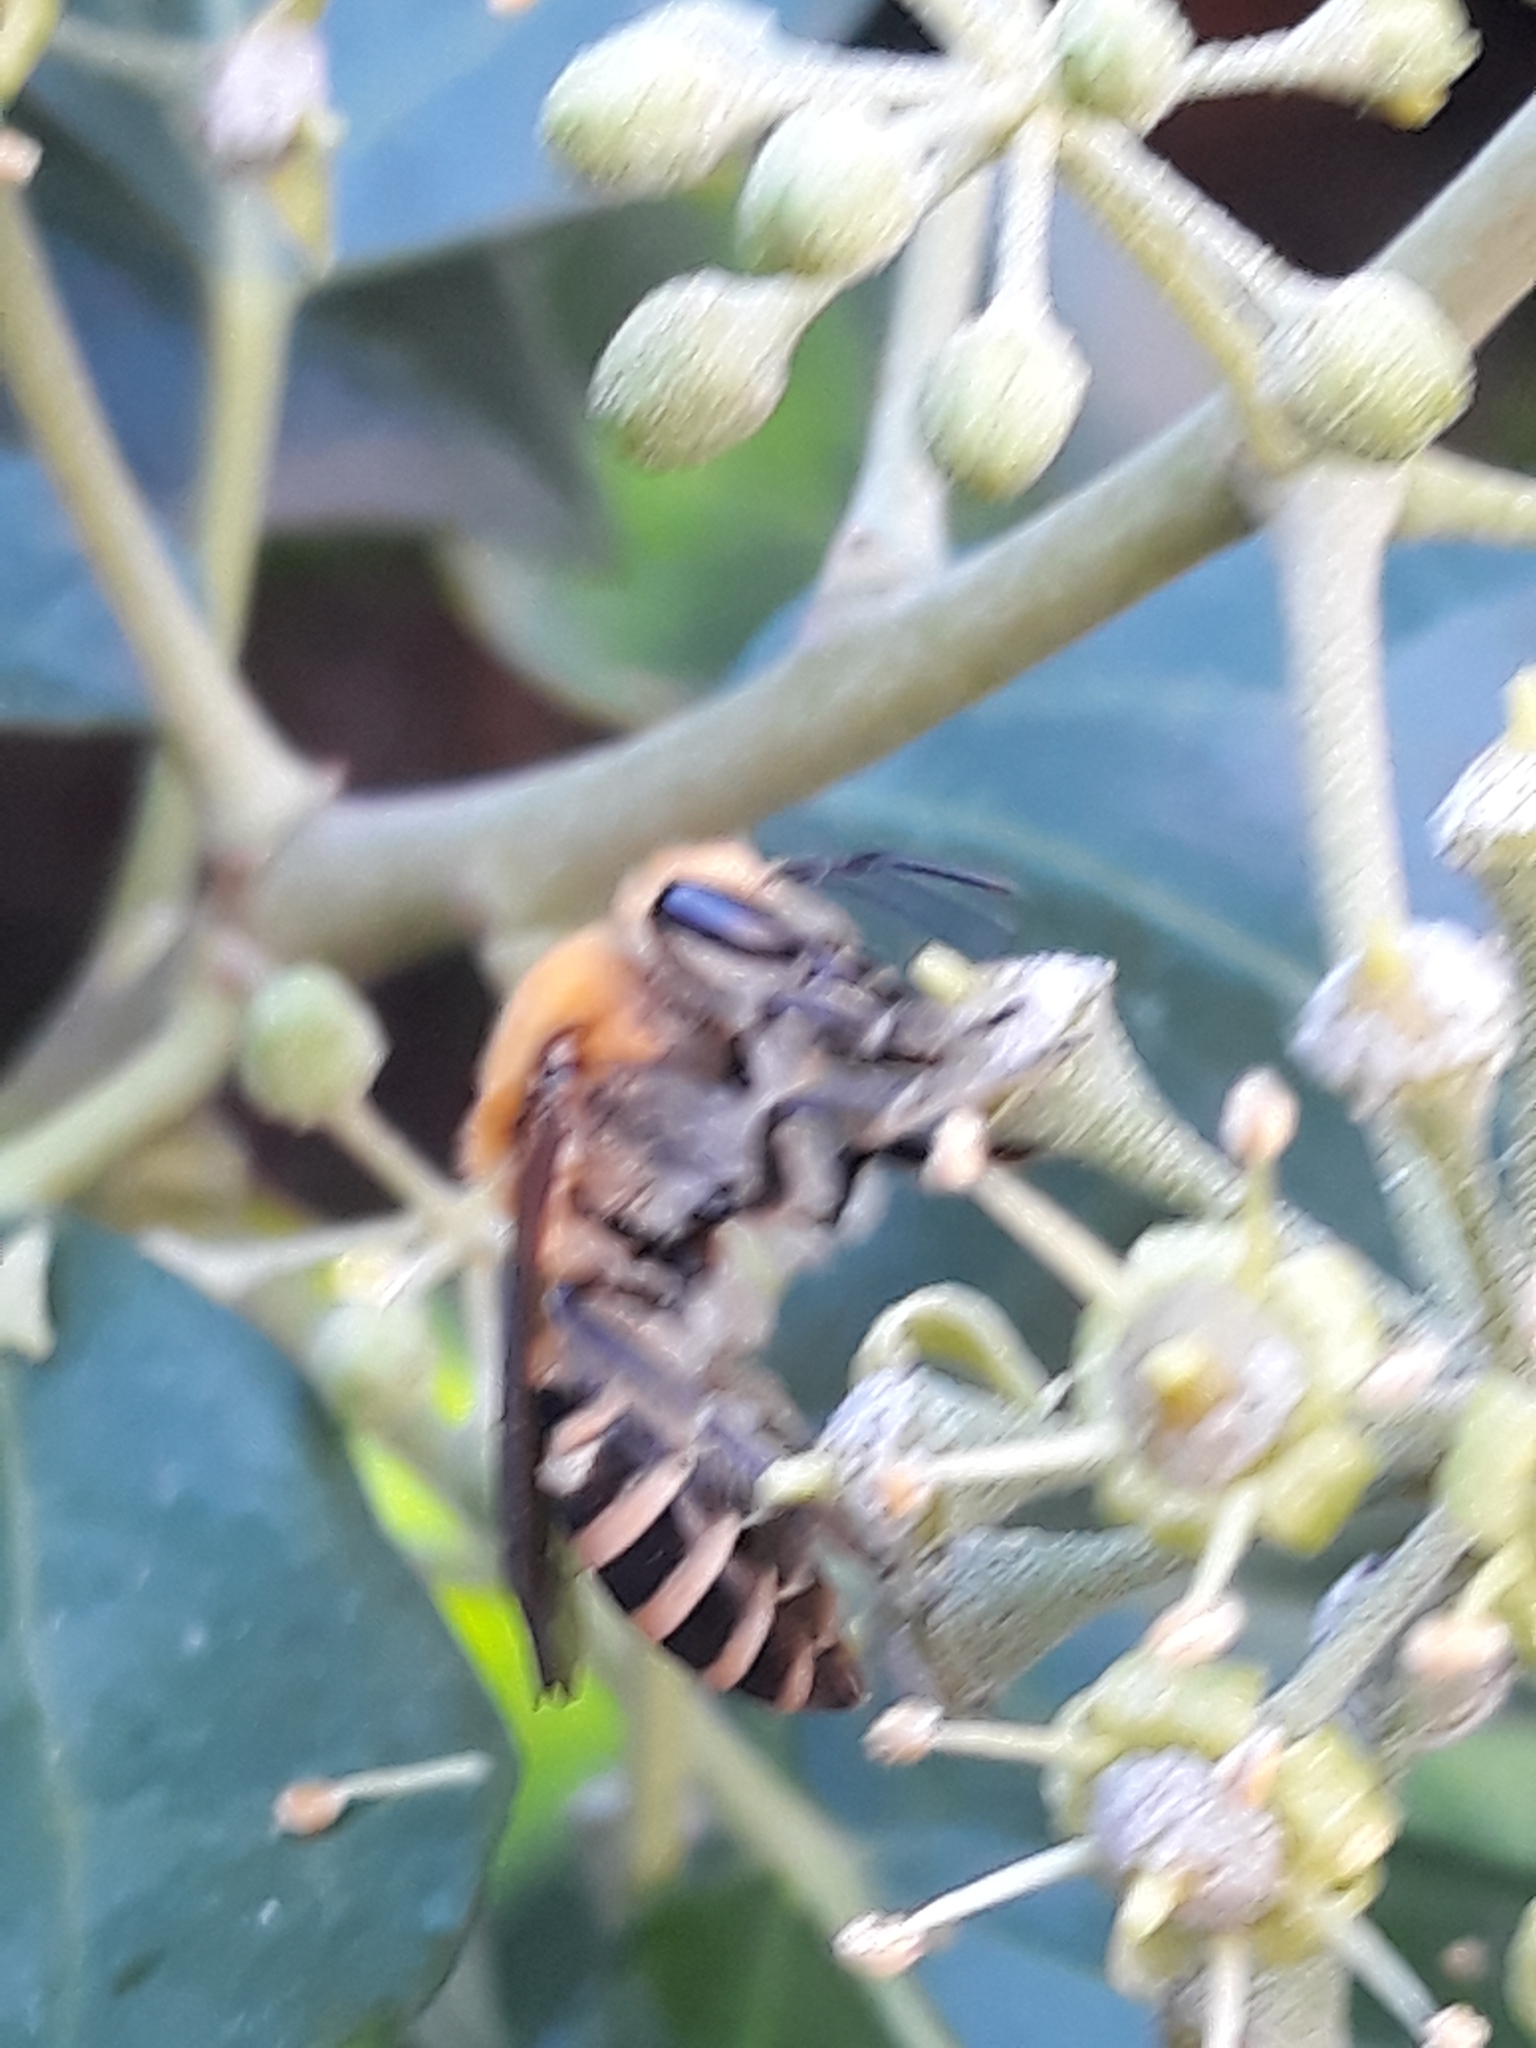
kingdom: Animalia
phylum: Arthropoda
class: Insecta
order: Hymenoptera
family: Colletidae
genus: Colletes
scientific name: Colletes hederae
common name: Ivy bee
